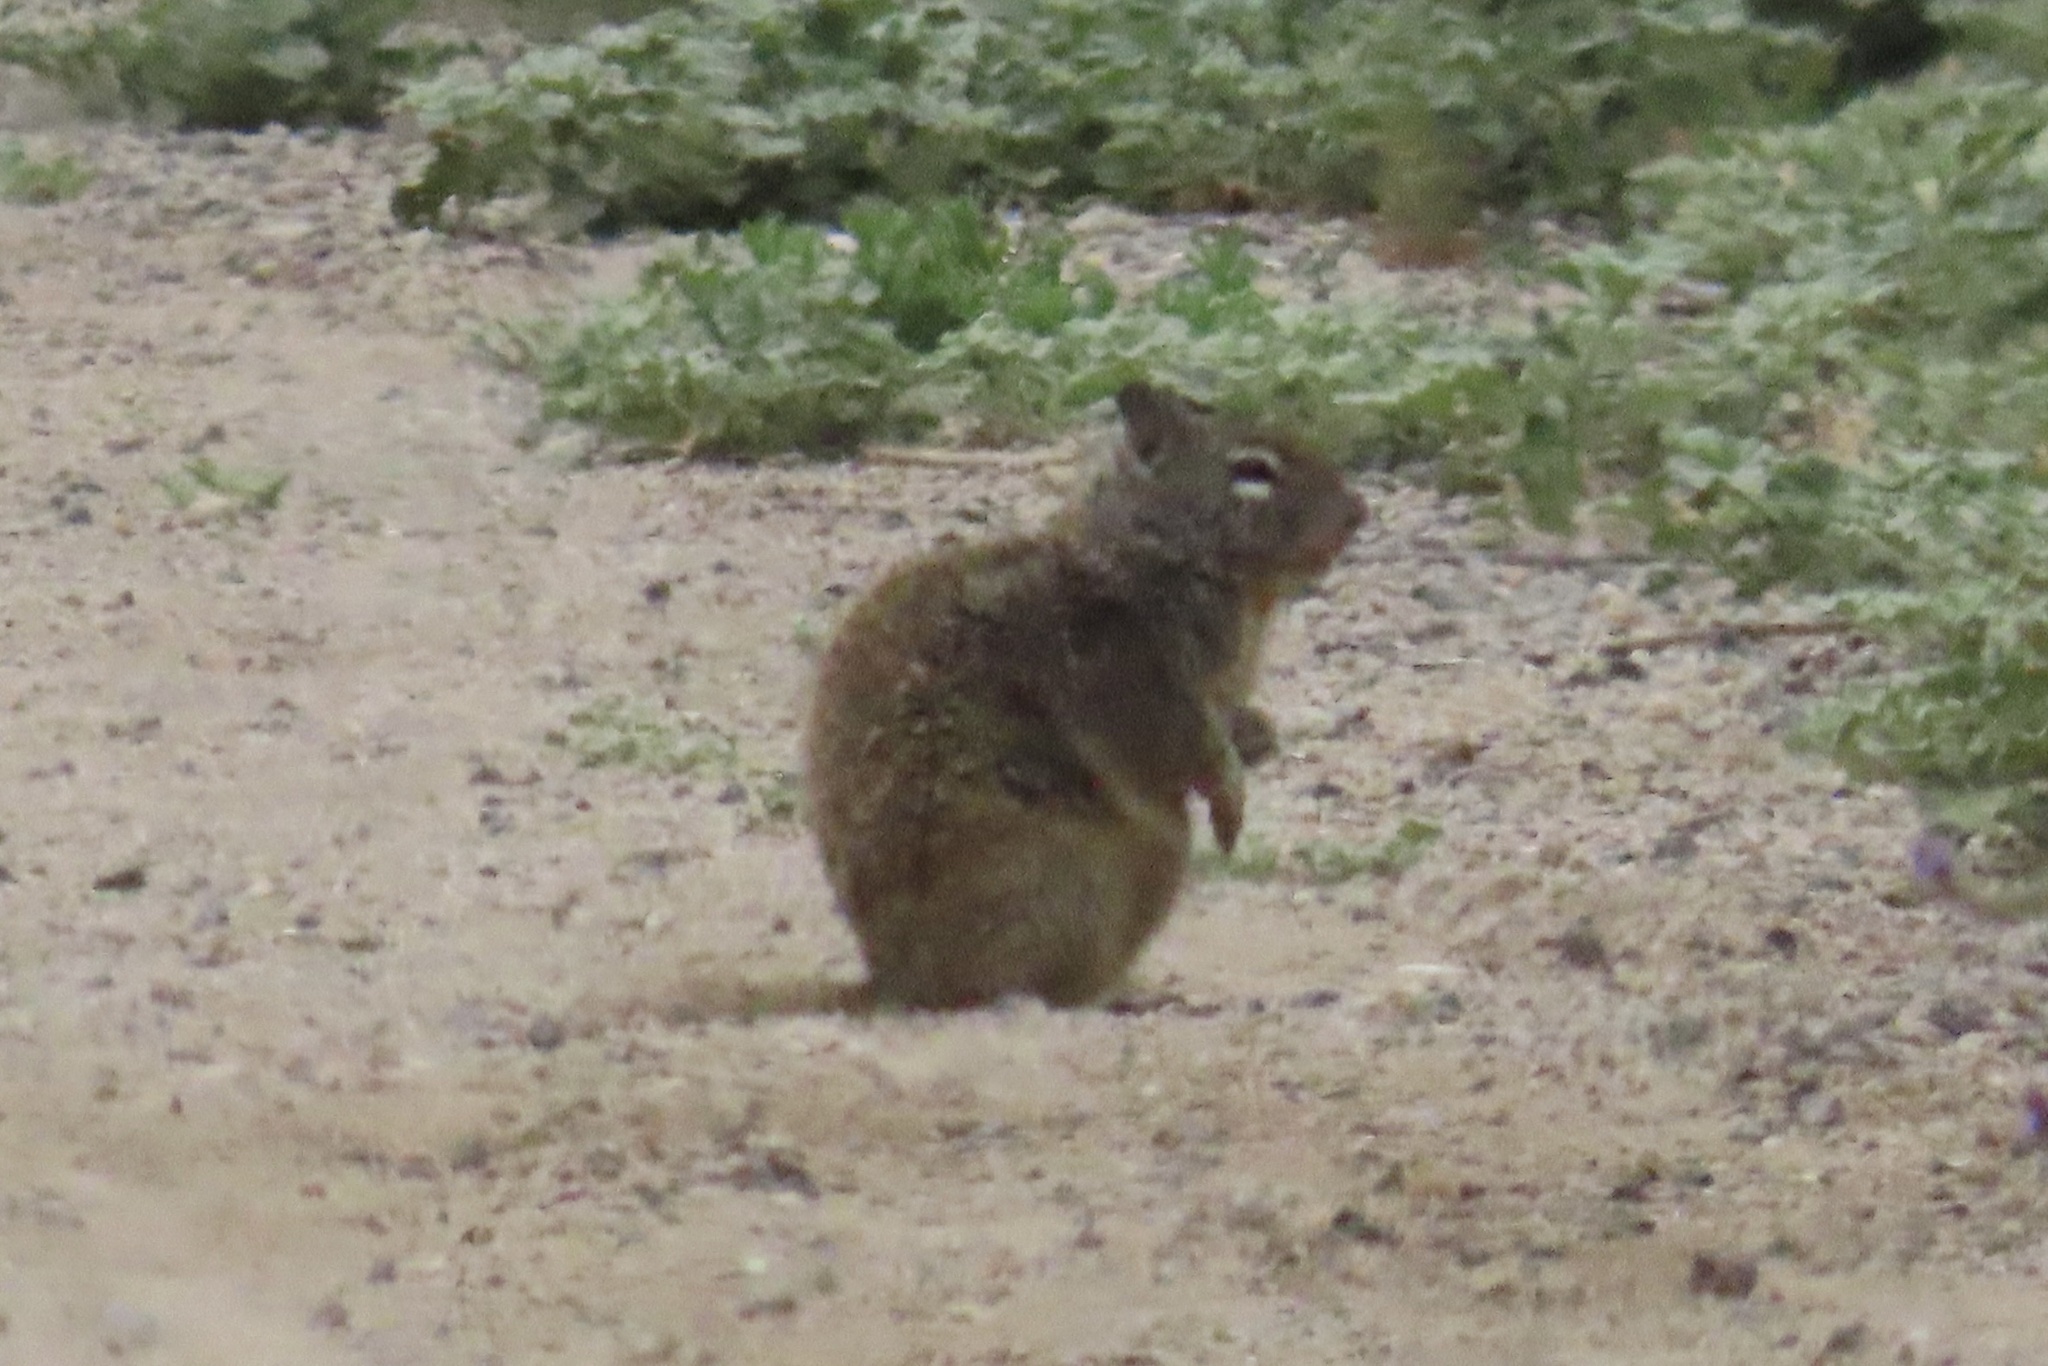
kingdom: Animalia
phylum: Chordata
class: Mammalia
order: Rodentia
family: Sciuridae
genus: Otospermophilus
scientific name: Otospermophilus beecheyi
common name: California ground squirrel
